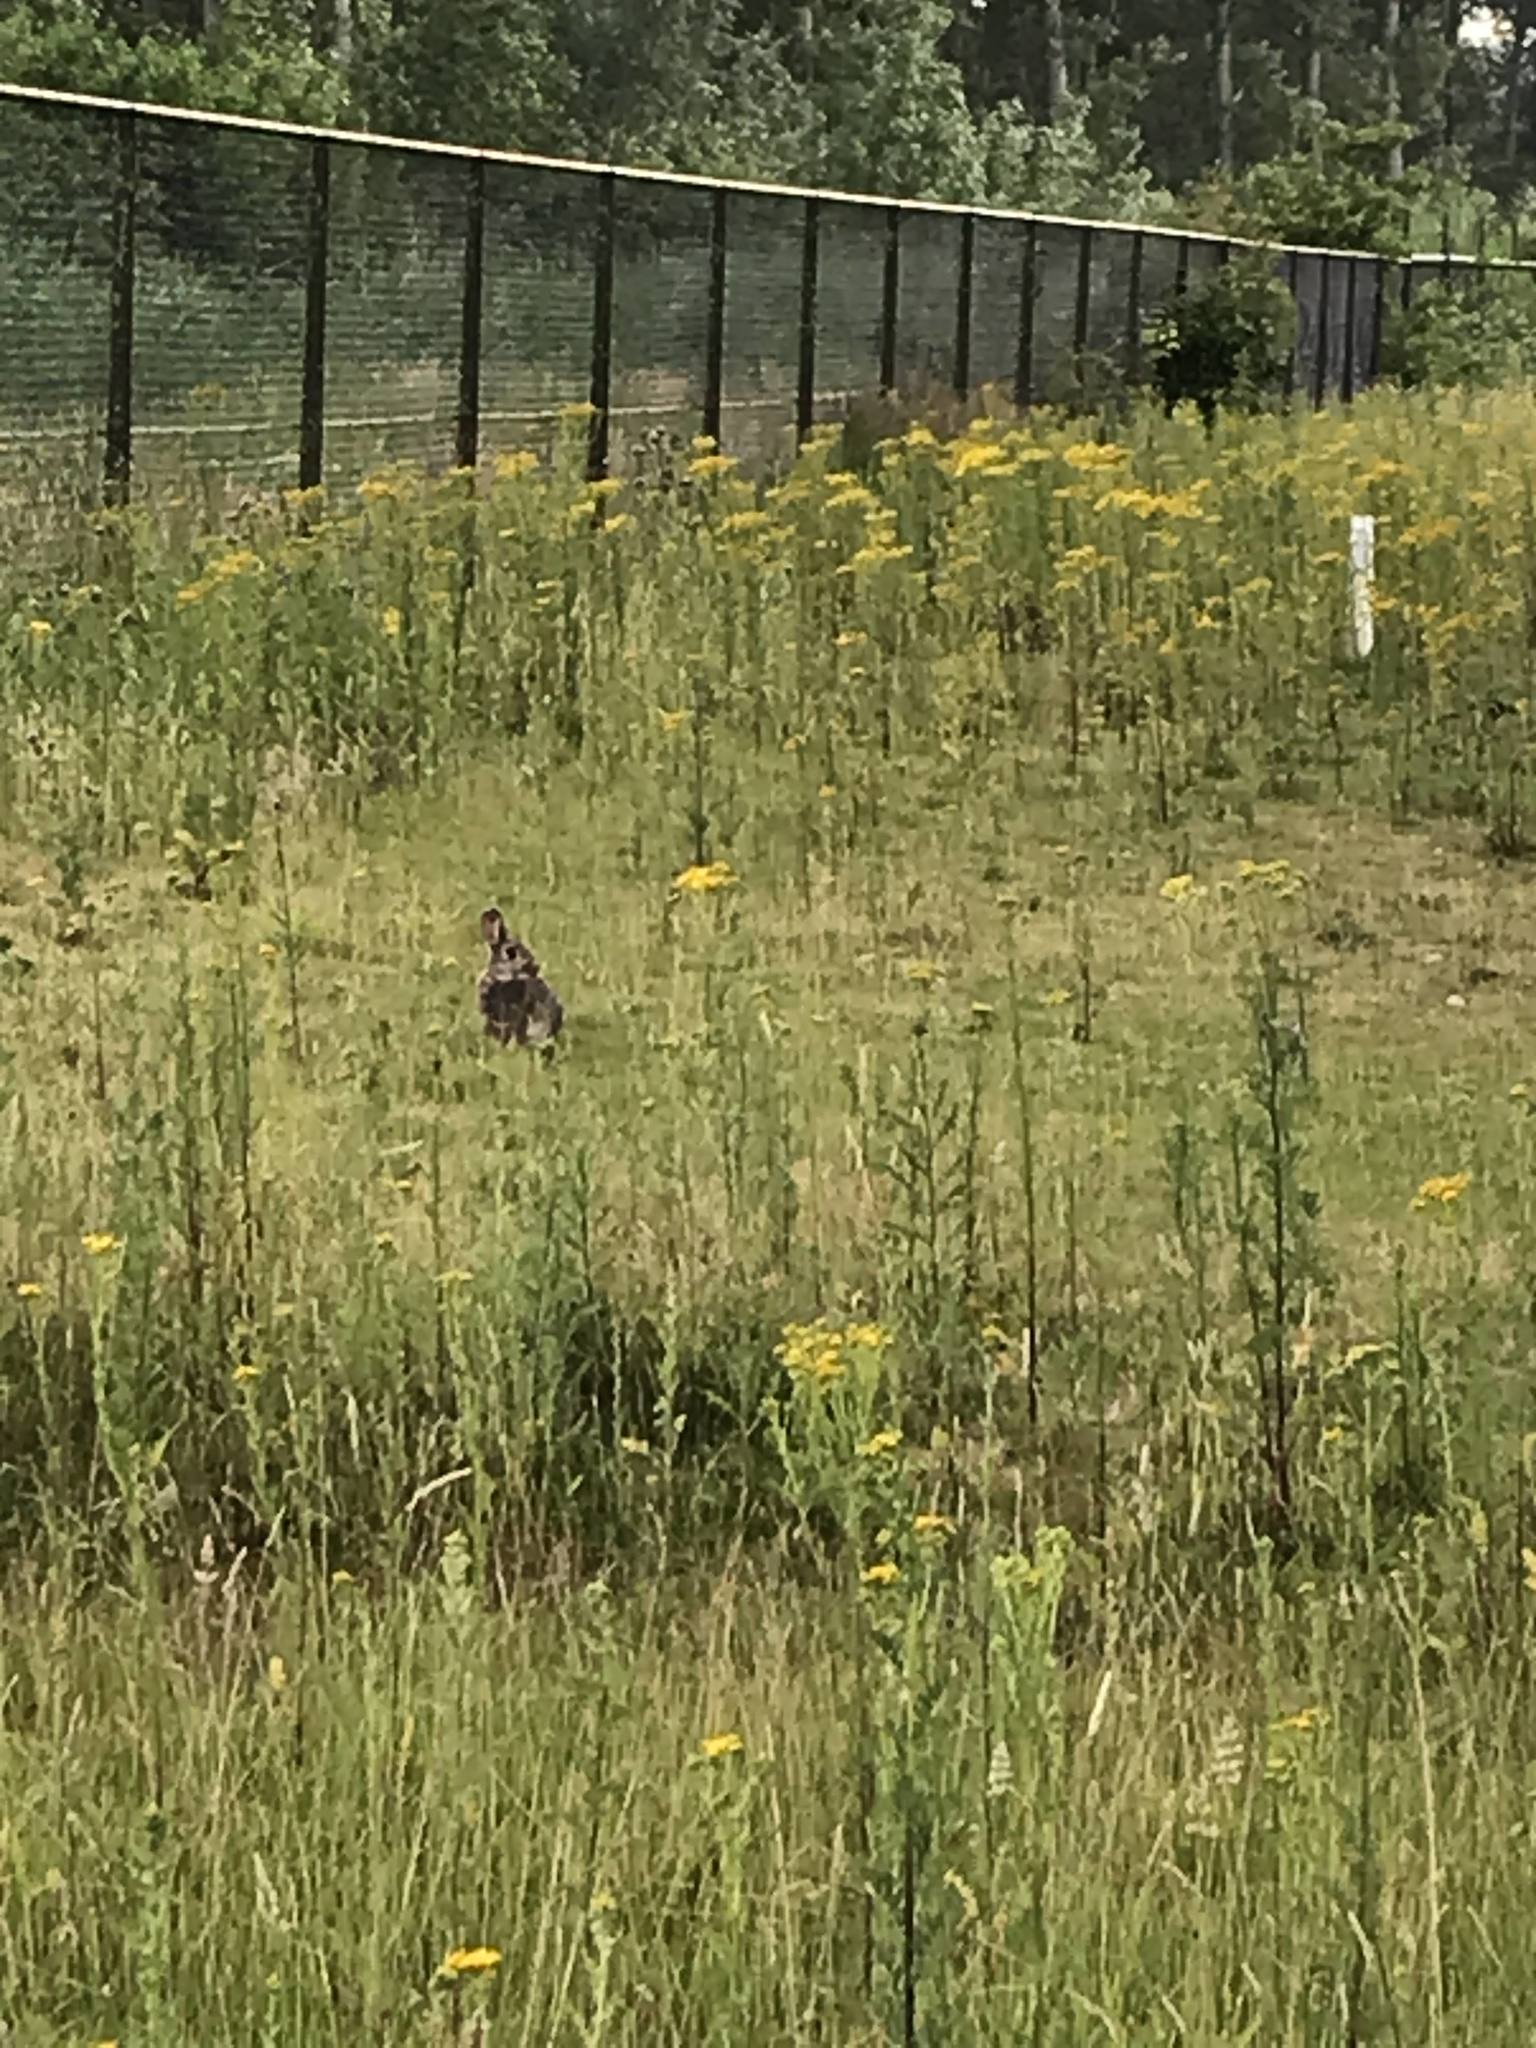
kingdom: Animalia
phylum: Chordata
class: Mammalia
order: Lagomorpha
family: Leporidae
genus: Oryctolagus
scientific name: Oryctolagus cuniculus
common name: European rabbit
